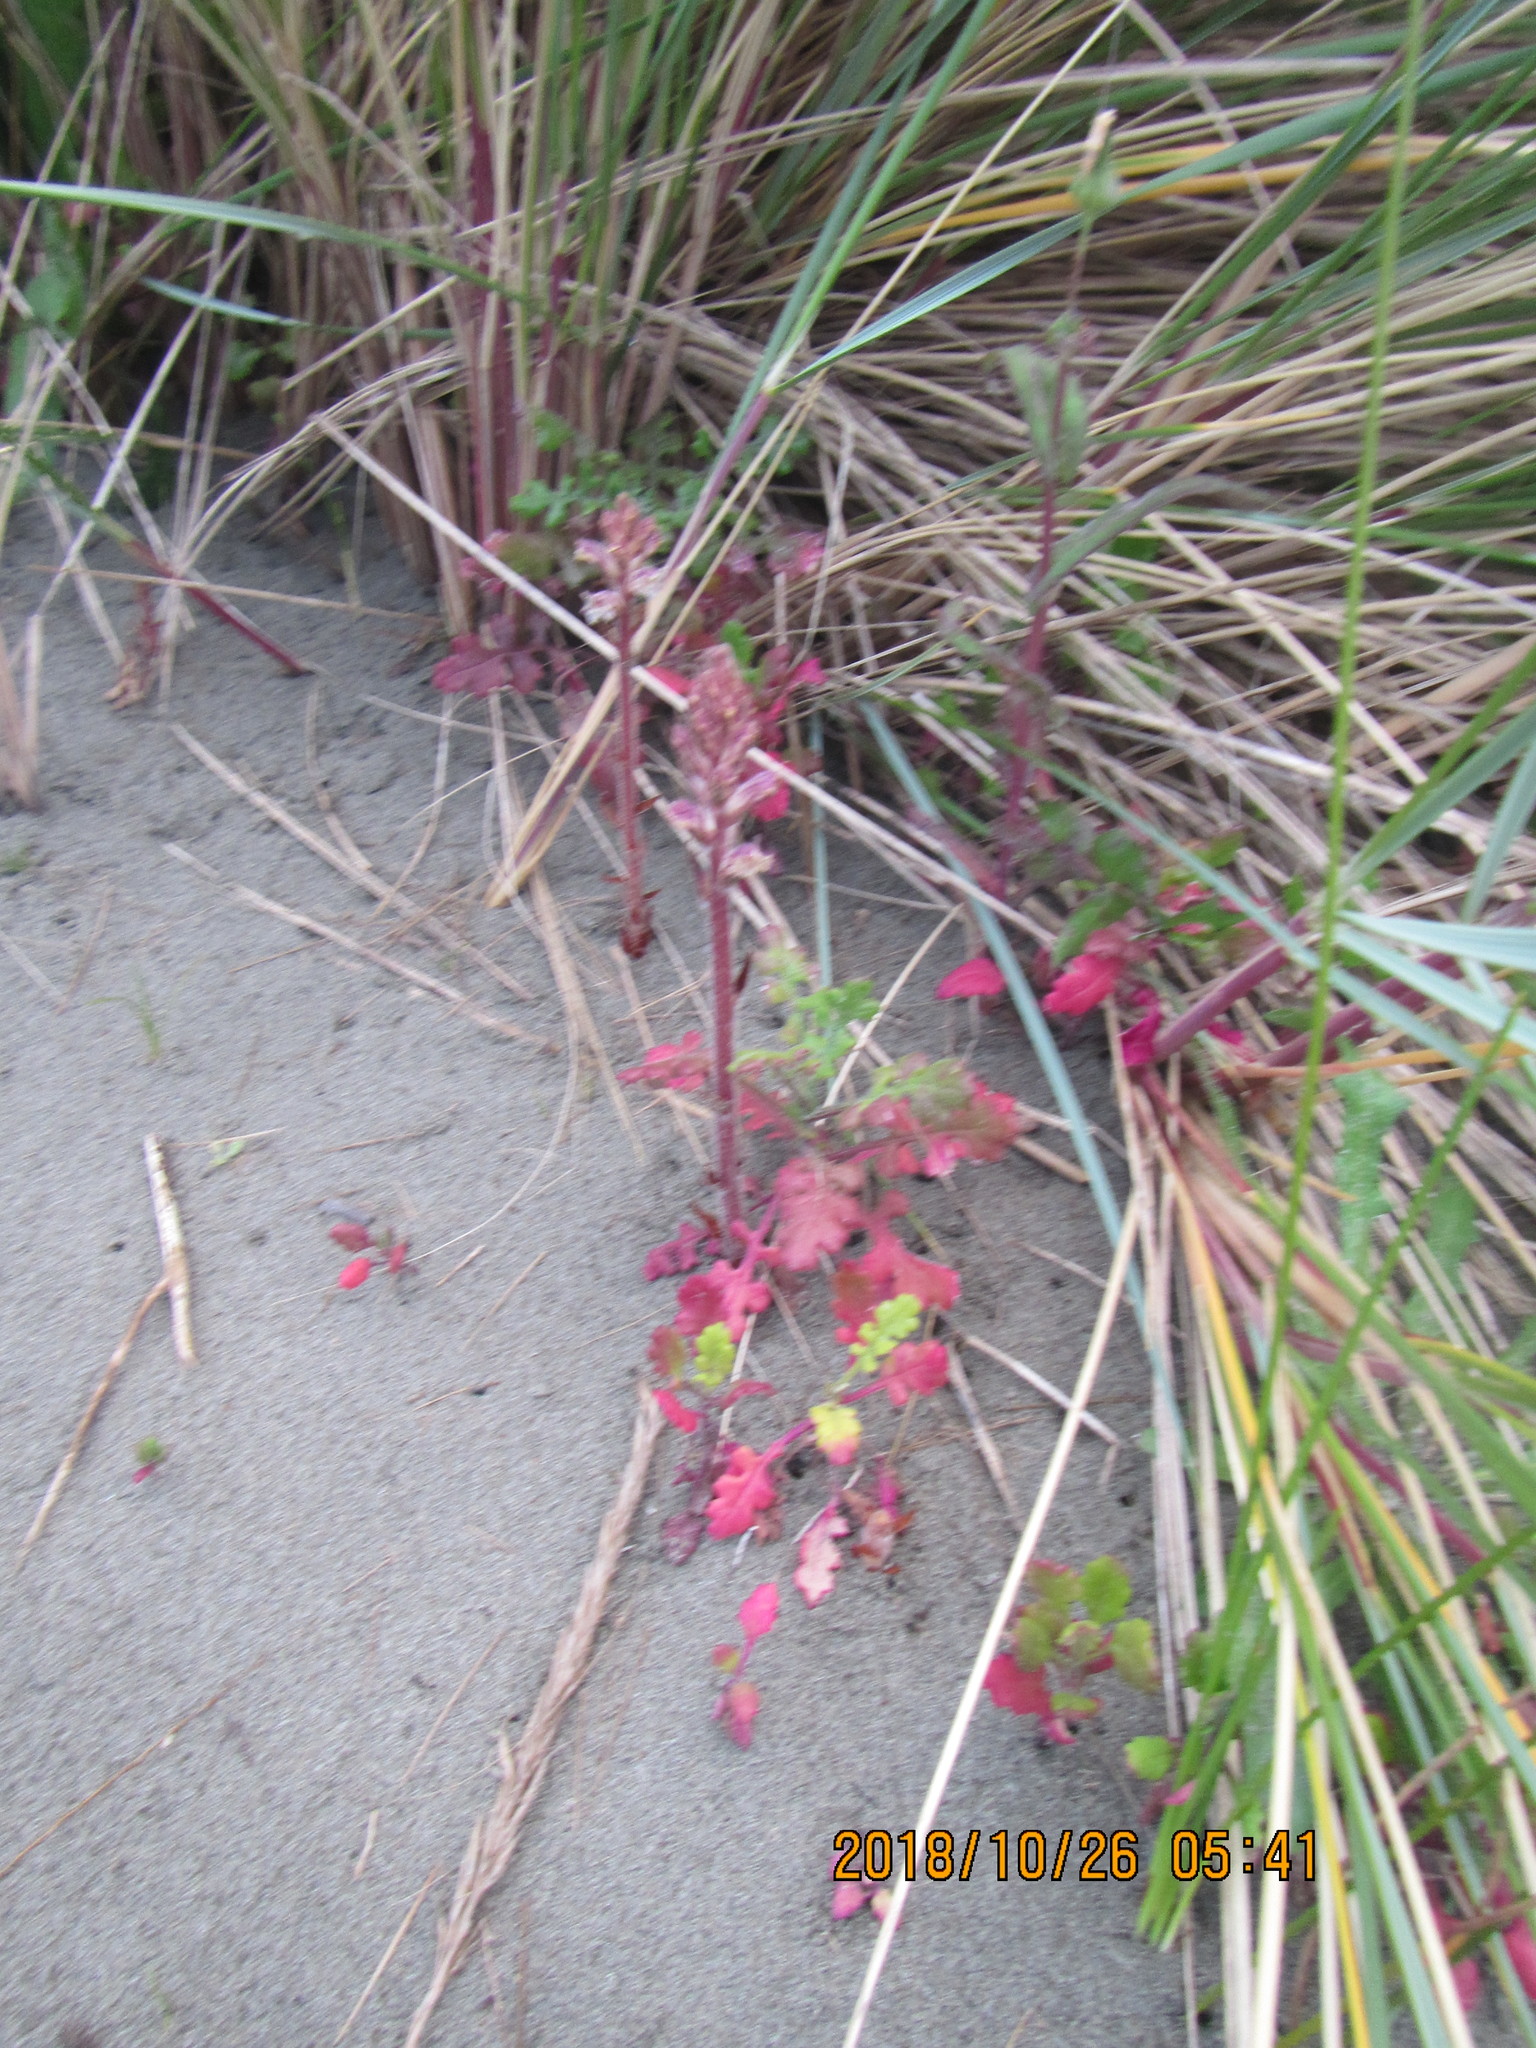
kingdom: Plantae
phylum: Tracheophyta
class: Magnoliopsida
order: Lamiales
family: Orobanchaceae
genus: Orobanche
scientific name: Orobanche minor
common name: Common broomrape
